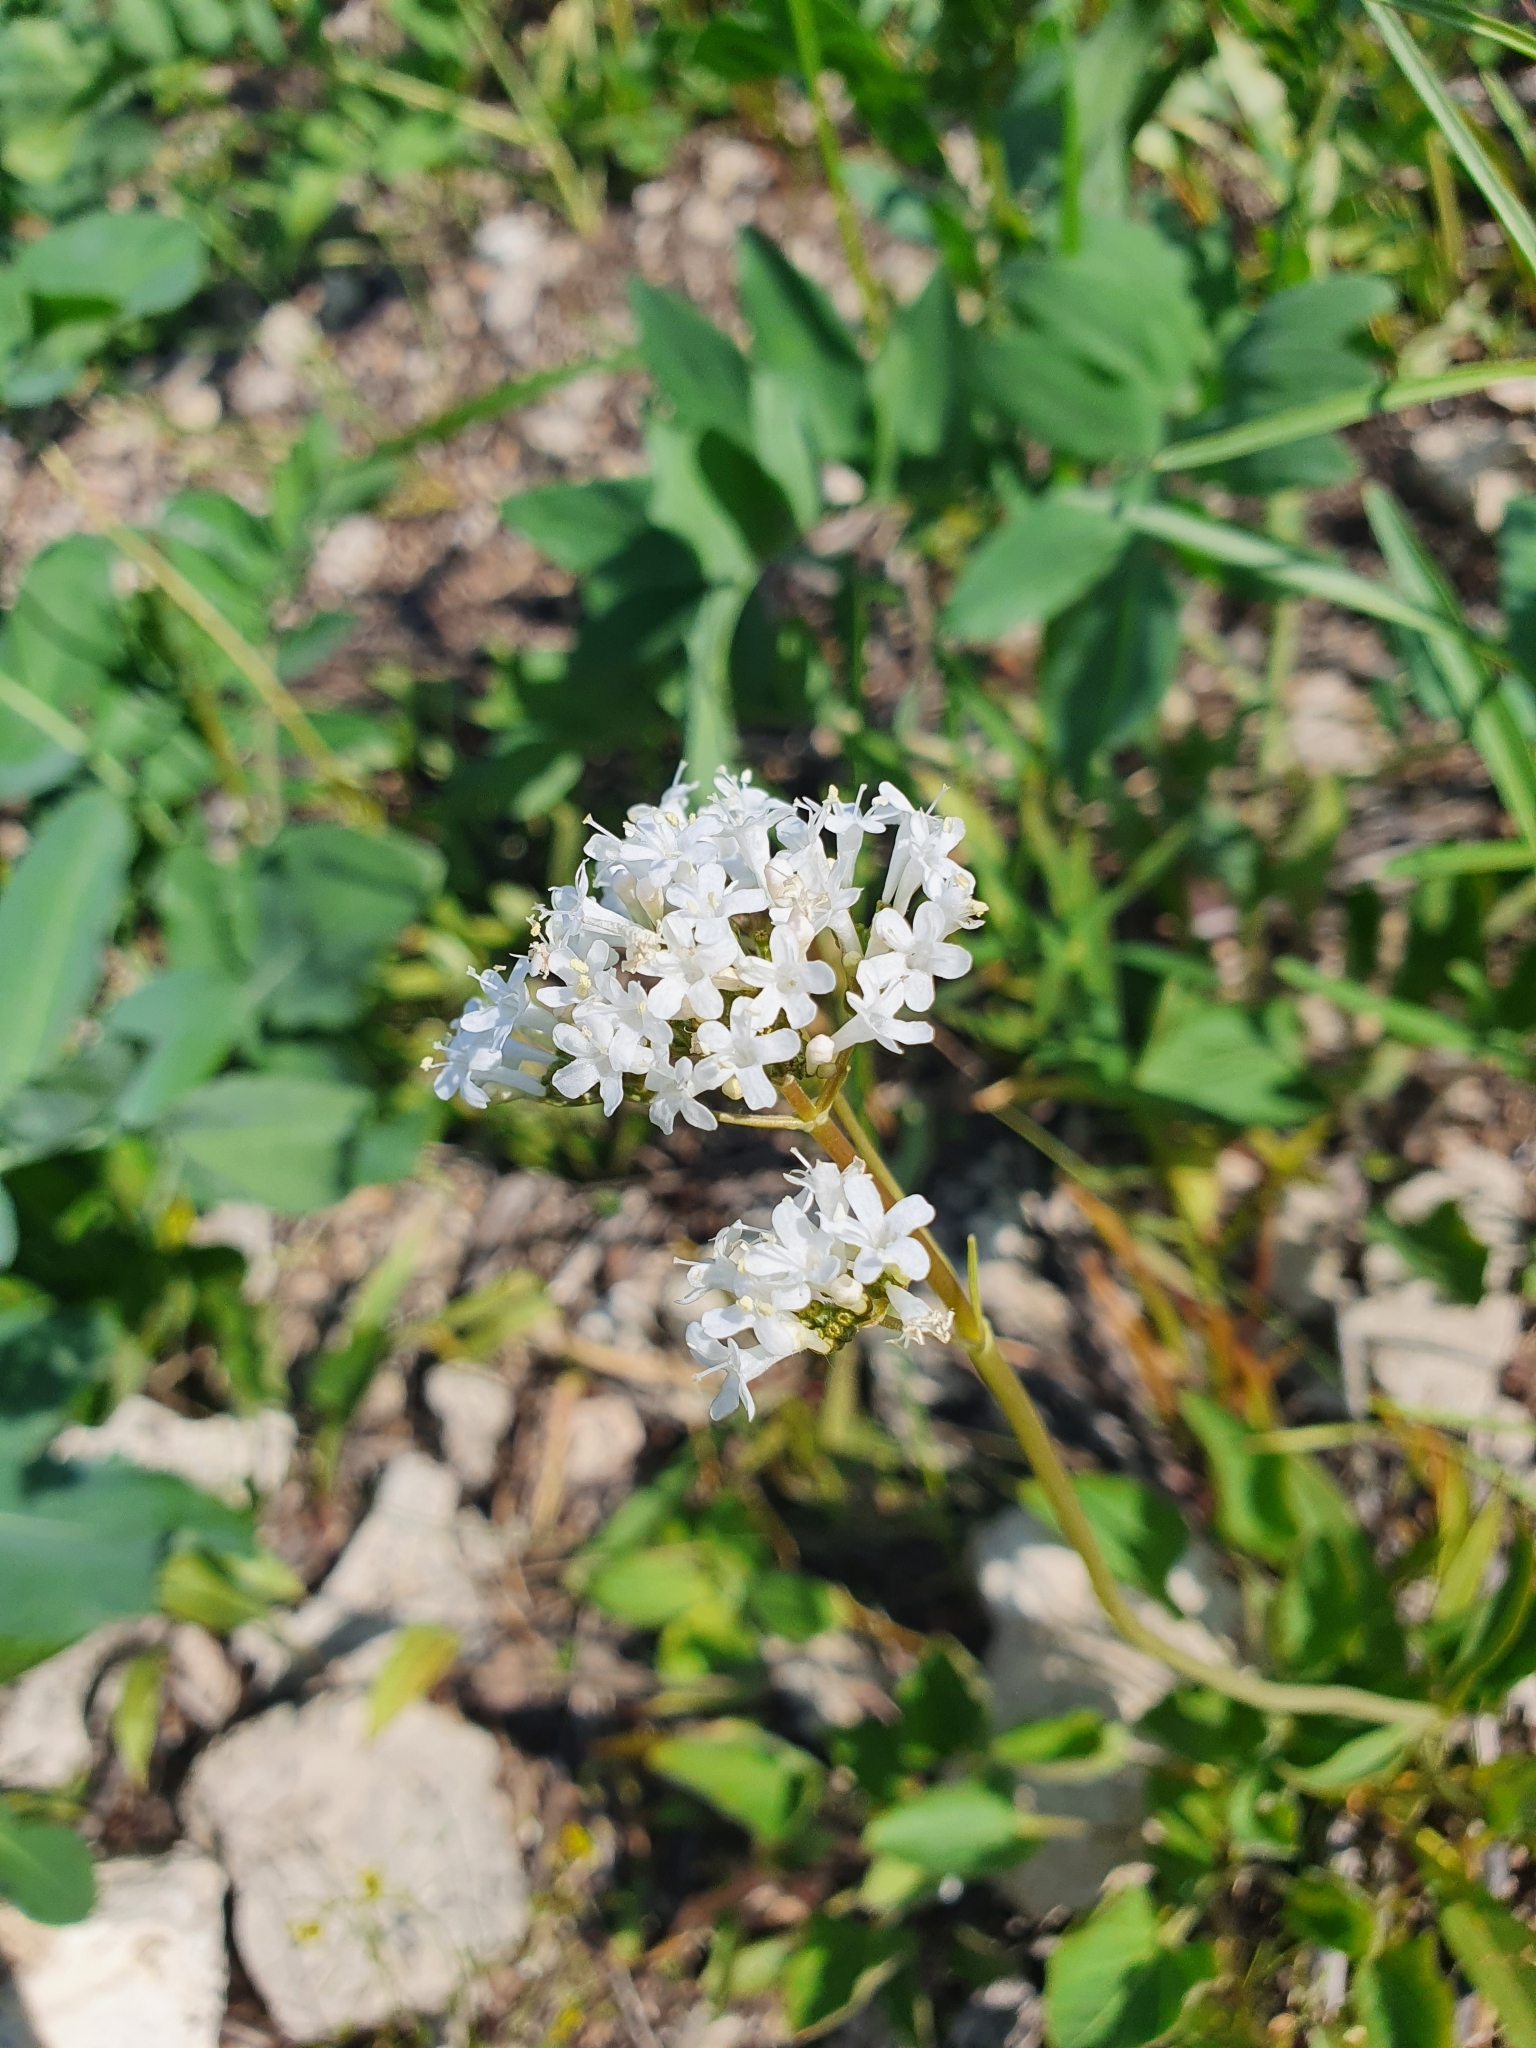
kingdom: Plantae
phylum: Tracheophyta
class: Magnoliopsida
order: Dipsacales
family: Caprifoliaceae
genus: Valeriana
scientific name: Valeriana tuberosa
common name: Tuberous valerian
